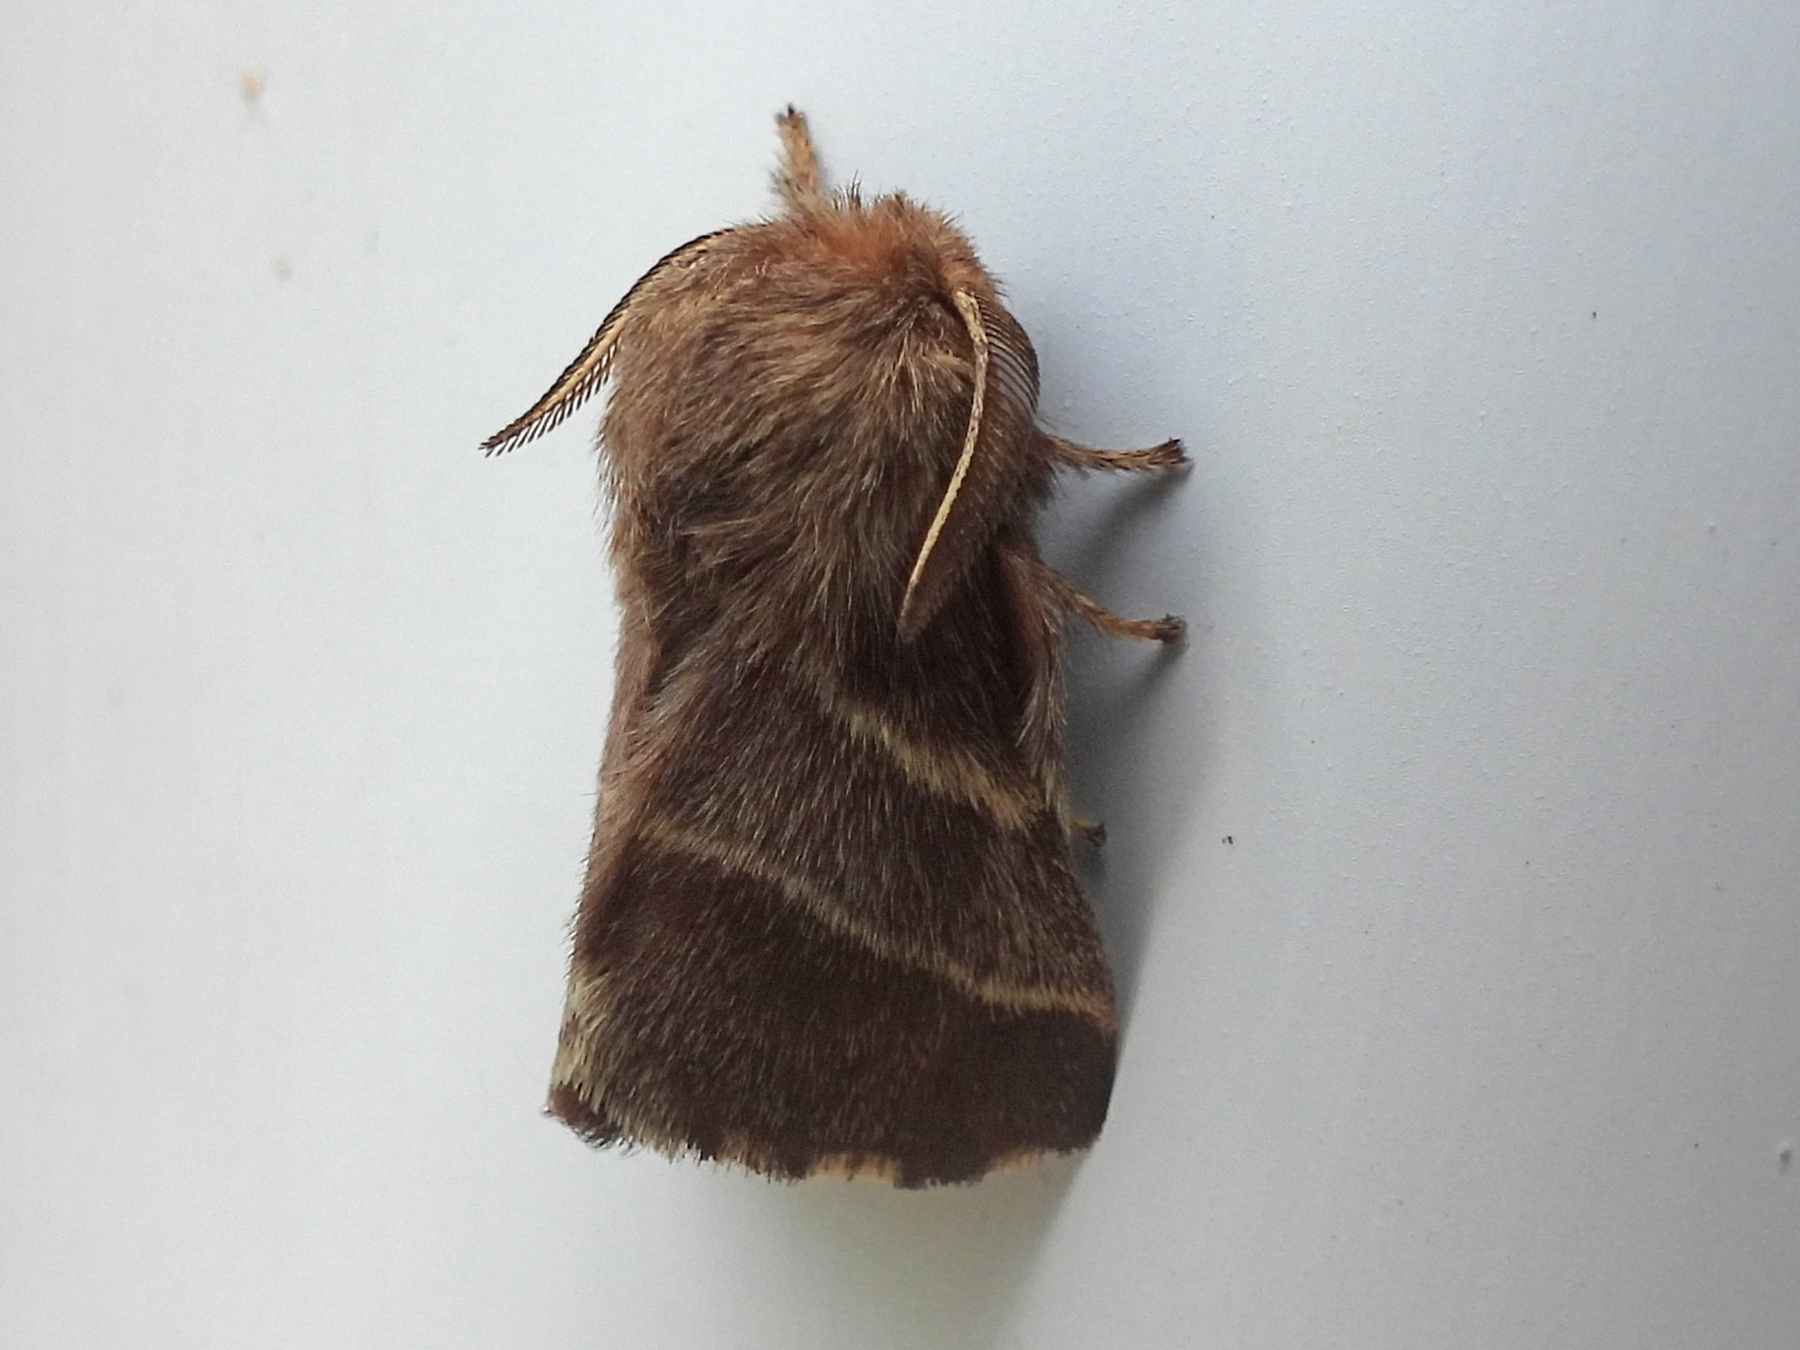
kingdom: Animalia
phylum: Arthropoda
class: Insecta
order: Lepidoptera
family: Lasiocampidae
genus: Malacosoma
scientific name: Malacosoma americana
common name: Eastern tent caterpillar moth
